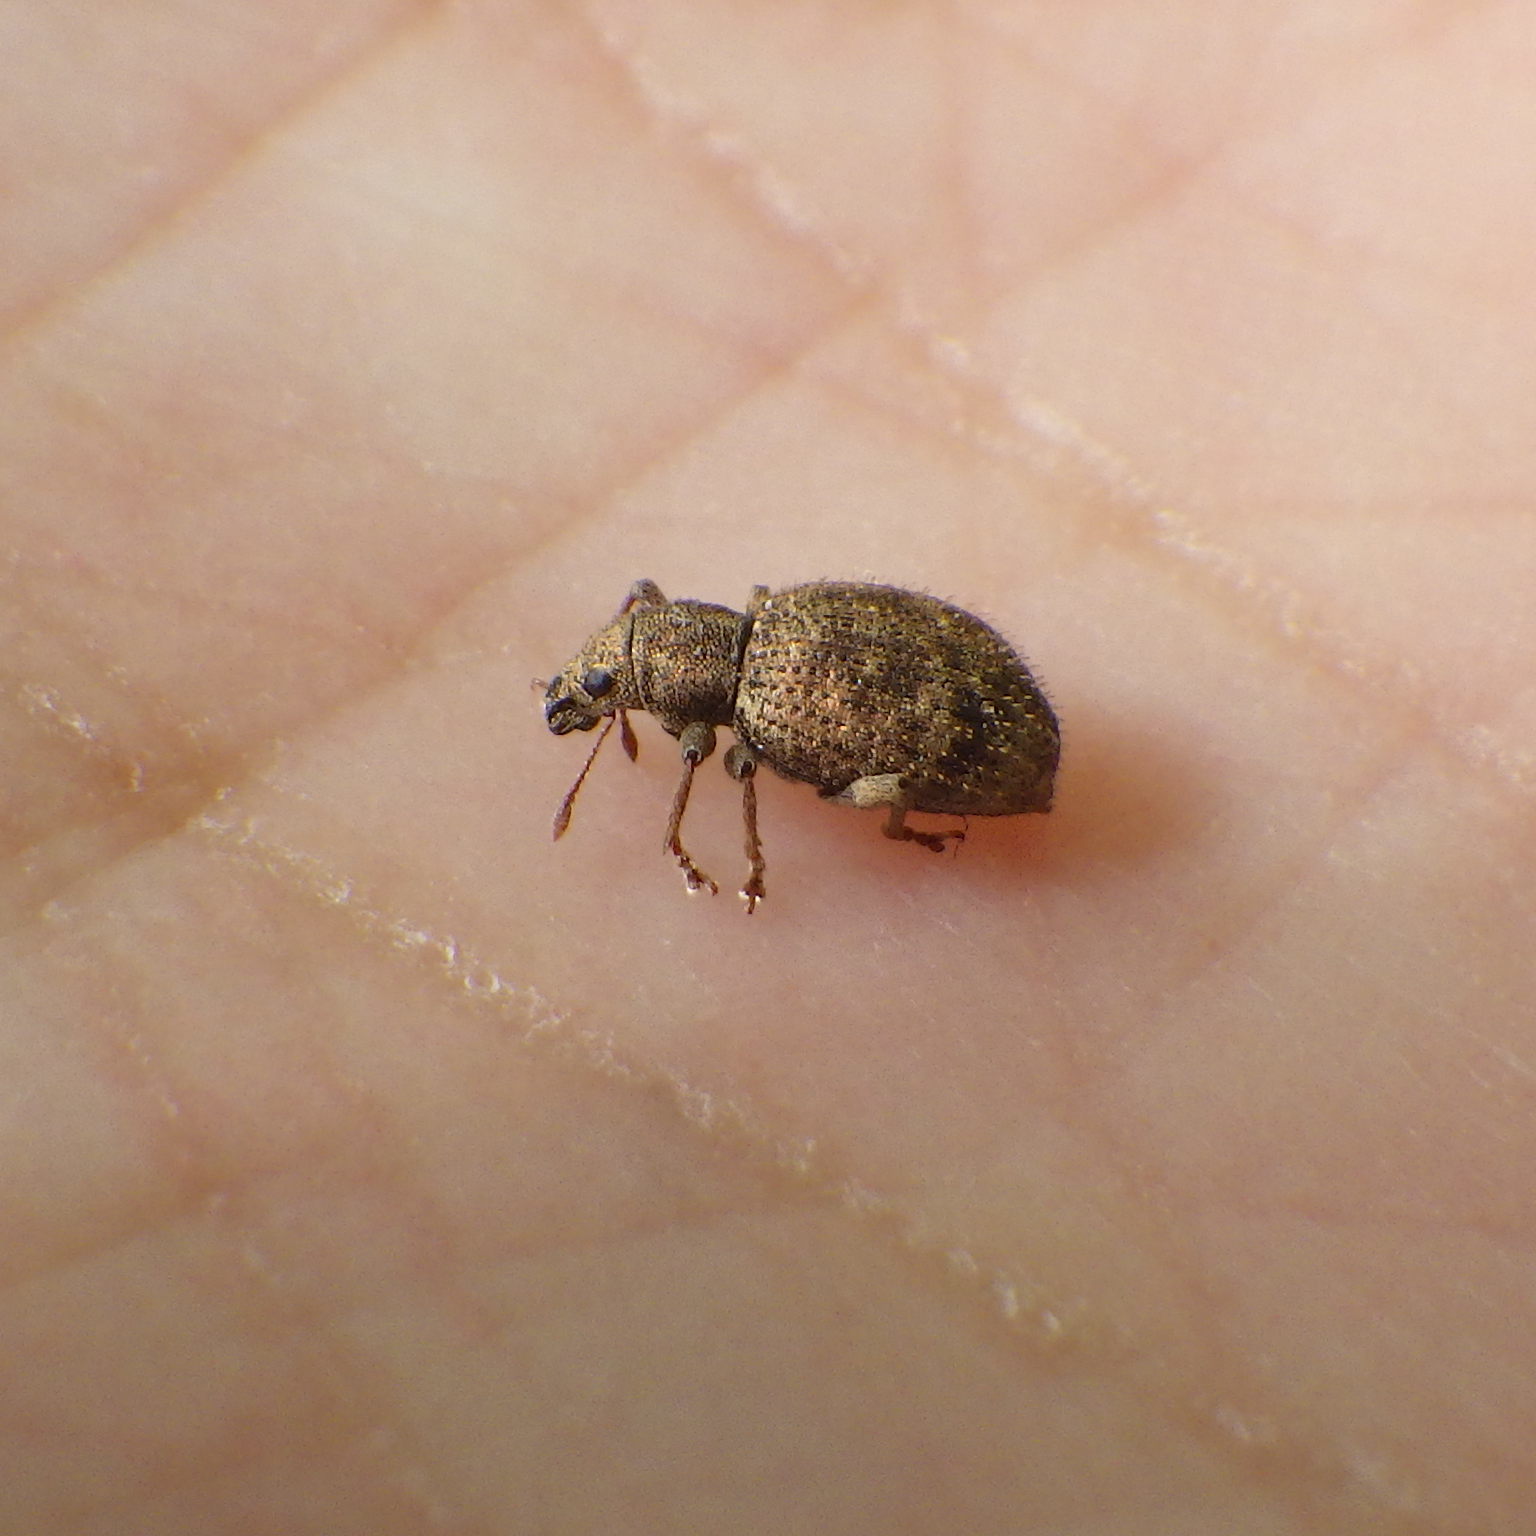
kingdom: Animalia
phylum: Arthropoda
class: Insecta
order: Coleoptera
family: Curculionidae
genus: Sciaphilus
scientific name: Sciaphilus asperatus
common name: Weevil
